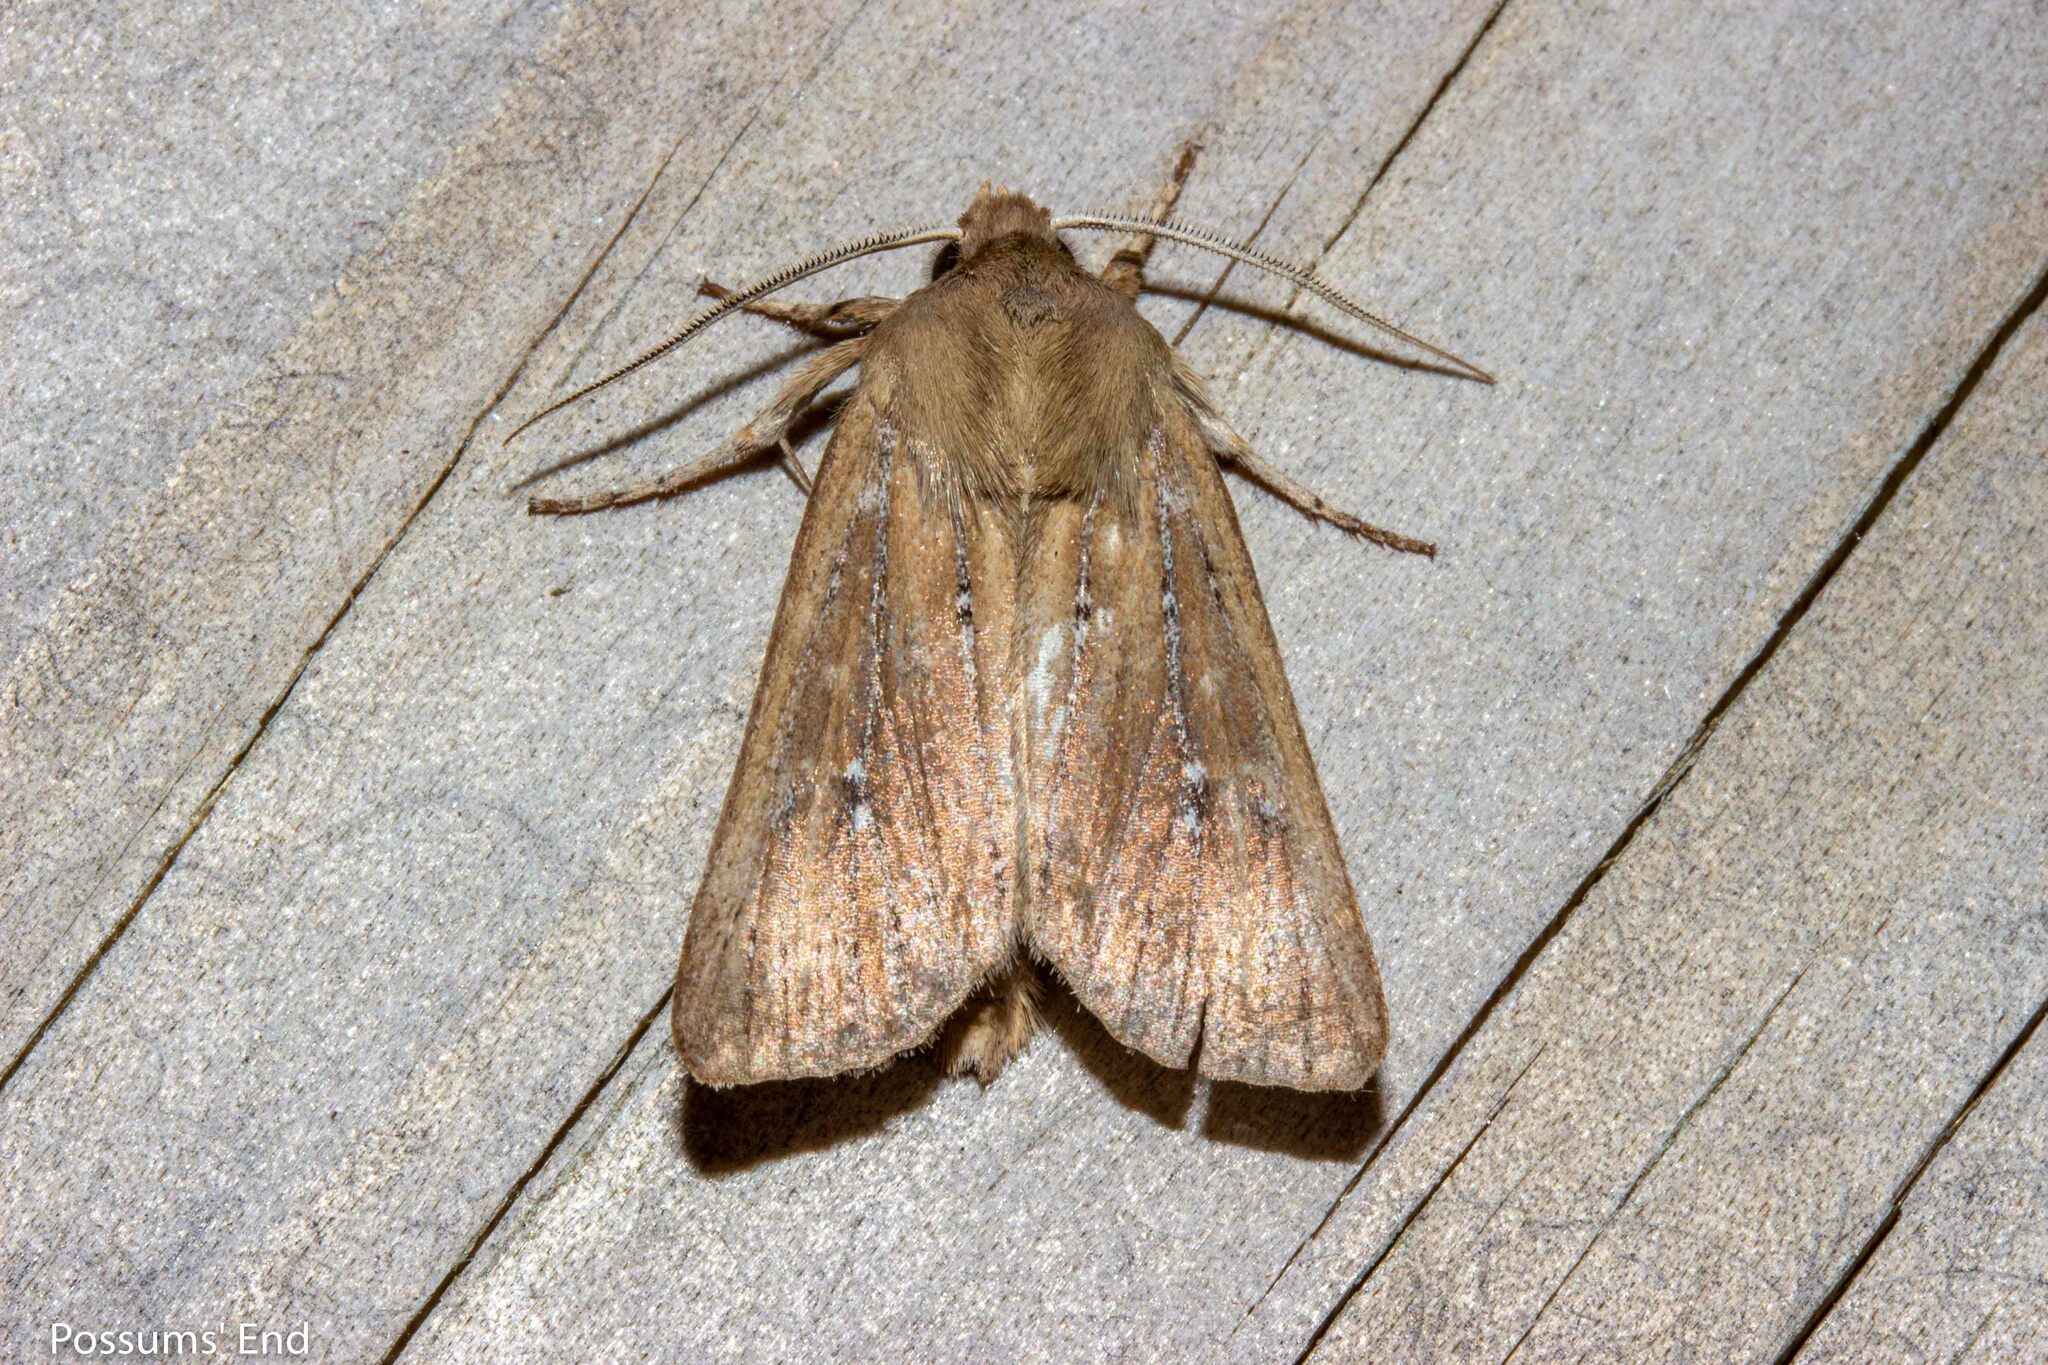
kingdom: Animalia
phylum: Arthropoda
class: Insecta
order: Lepidoptera
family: Noctuidae
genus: Ichneutica
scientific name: Ichneutica
